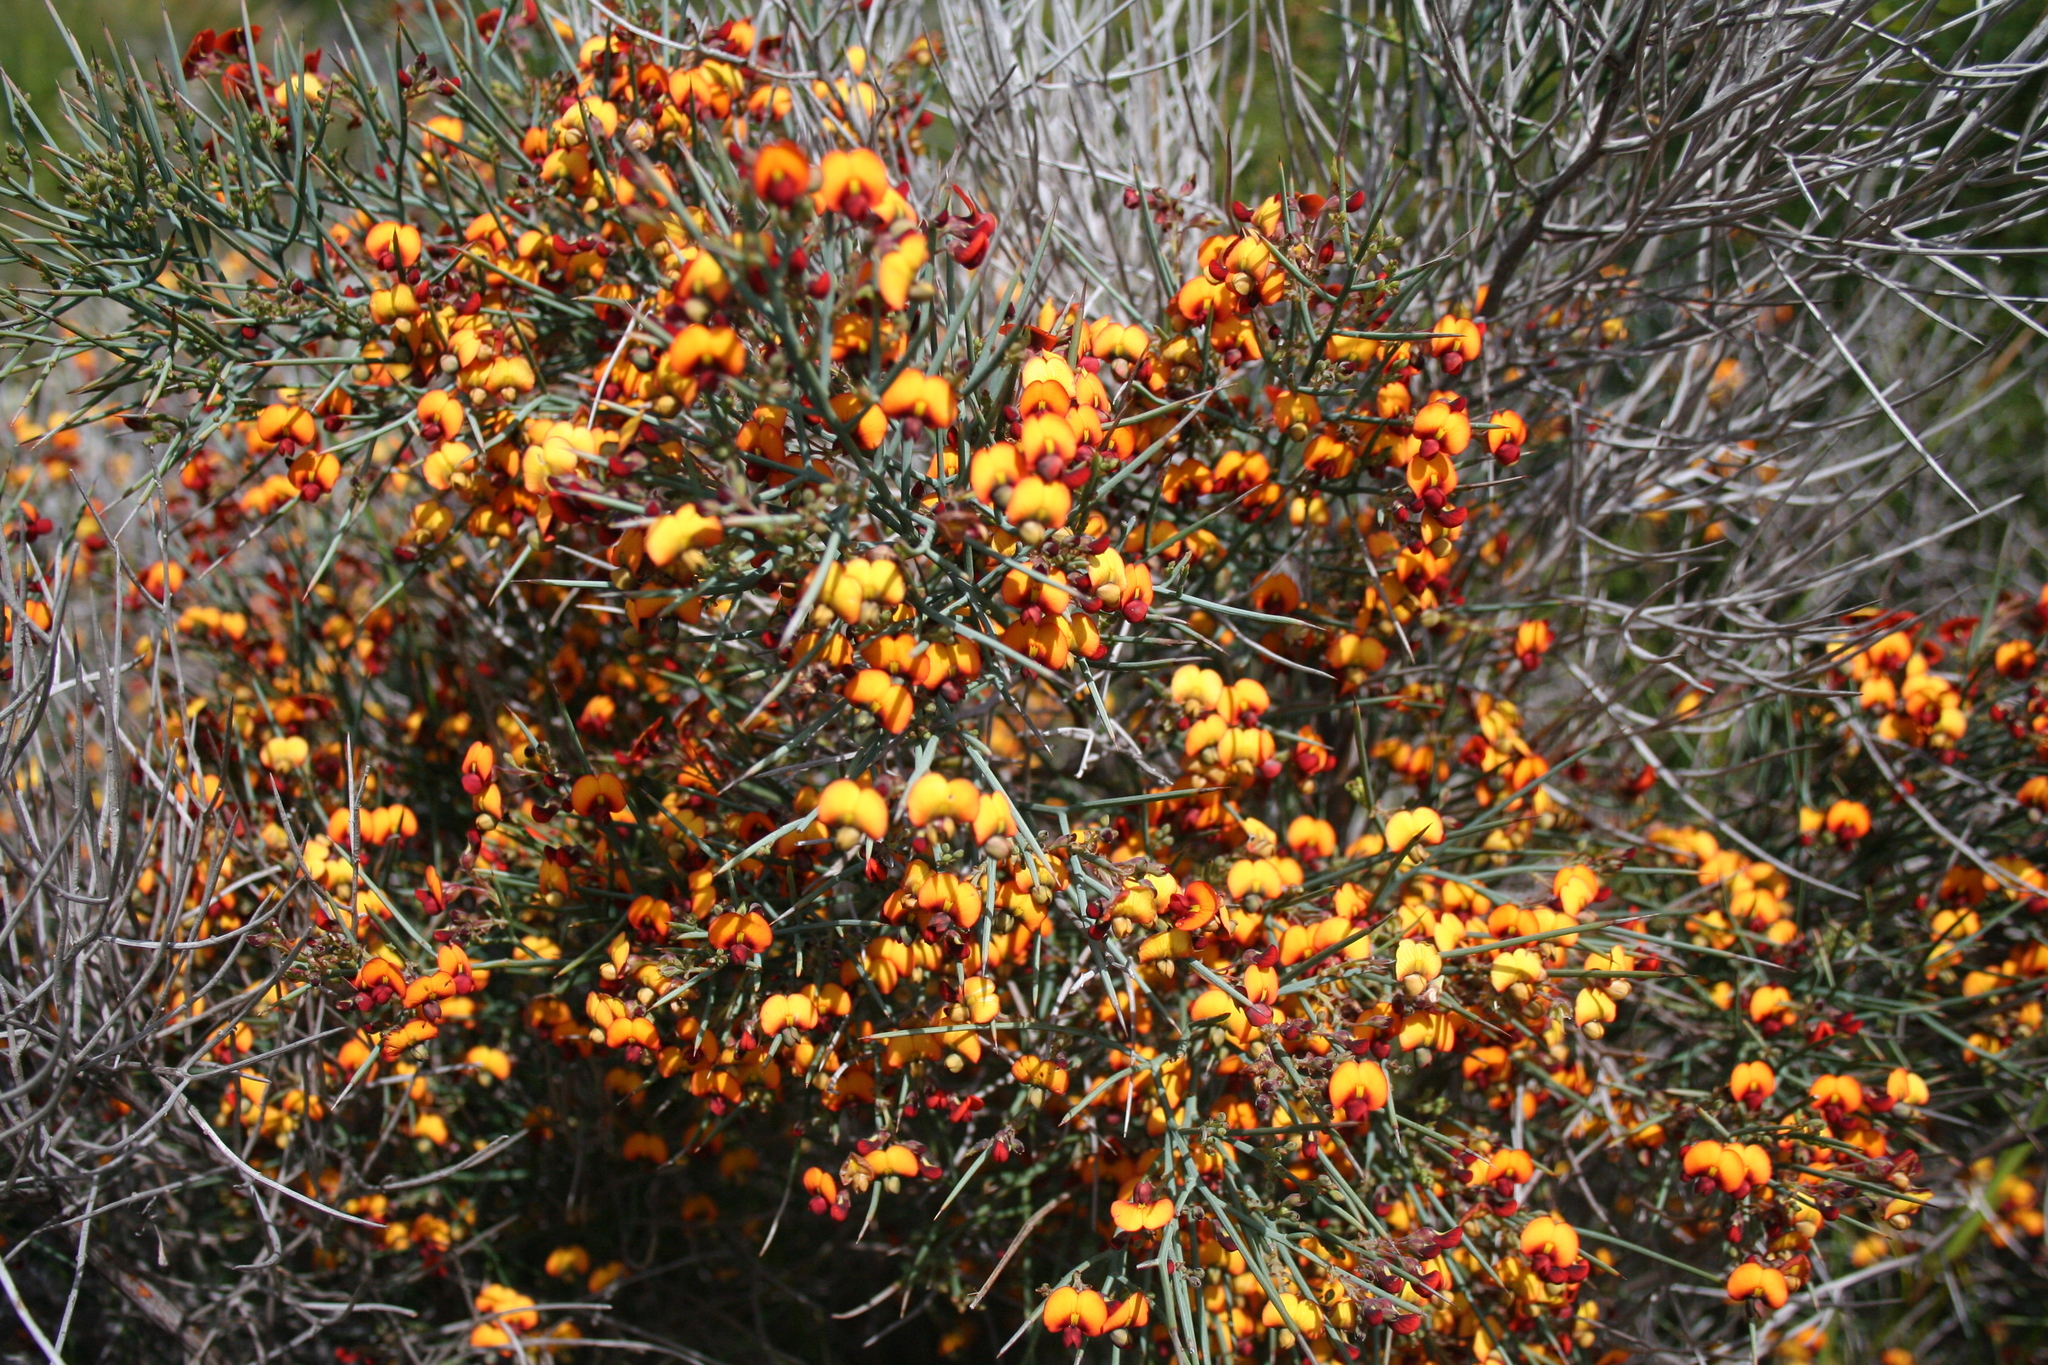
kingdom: Plantae
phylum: Tracheophyta
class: Magnoliopsida
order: Fabales
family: Fabaceae
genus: Daviesia
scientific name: Daviesia horrida
